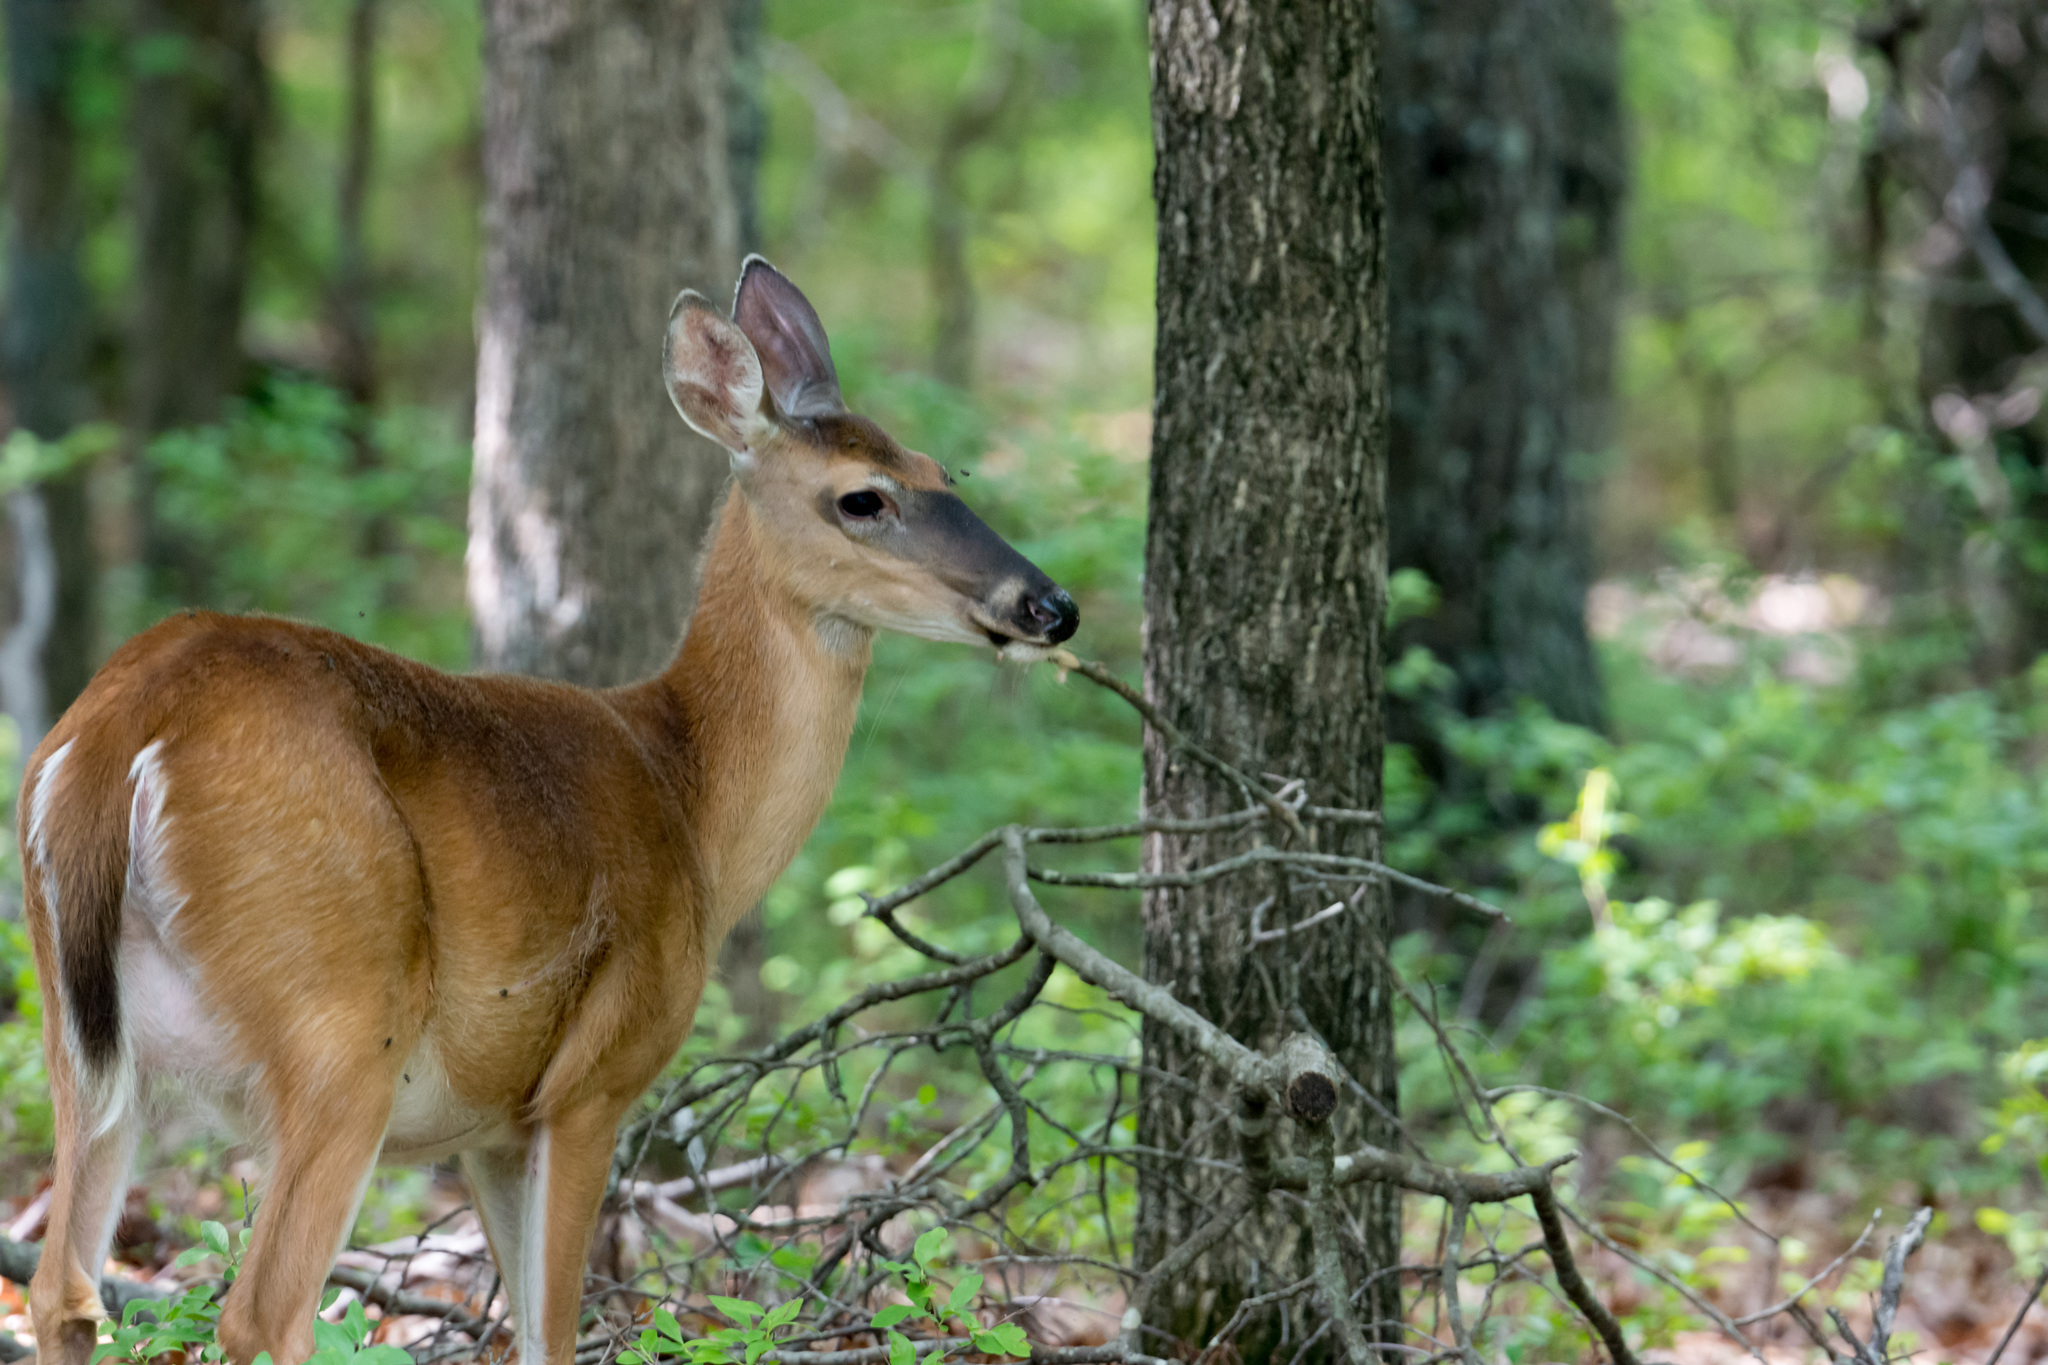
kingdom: Animalia
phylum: Chordata
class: Mammalia
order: Artiodactyla
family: Cervidae
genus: Odocoileus
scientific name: Odocoileus virginianus
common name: White-tailed deer
